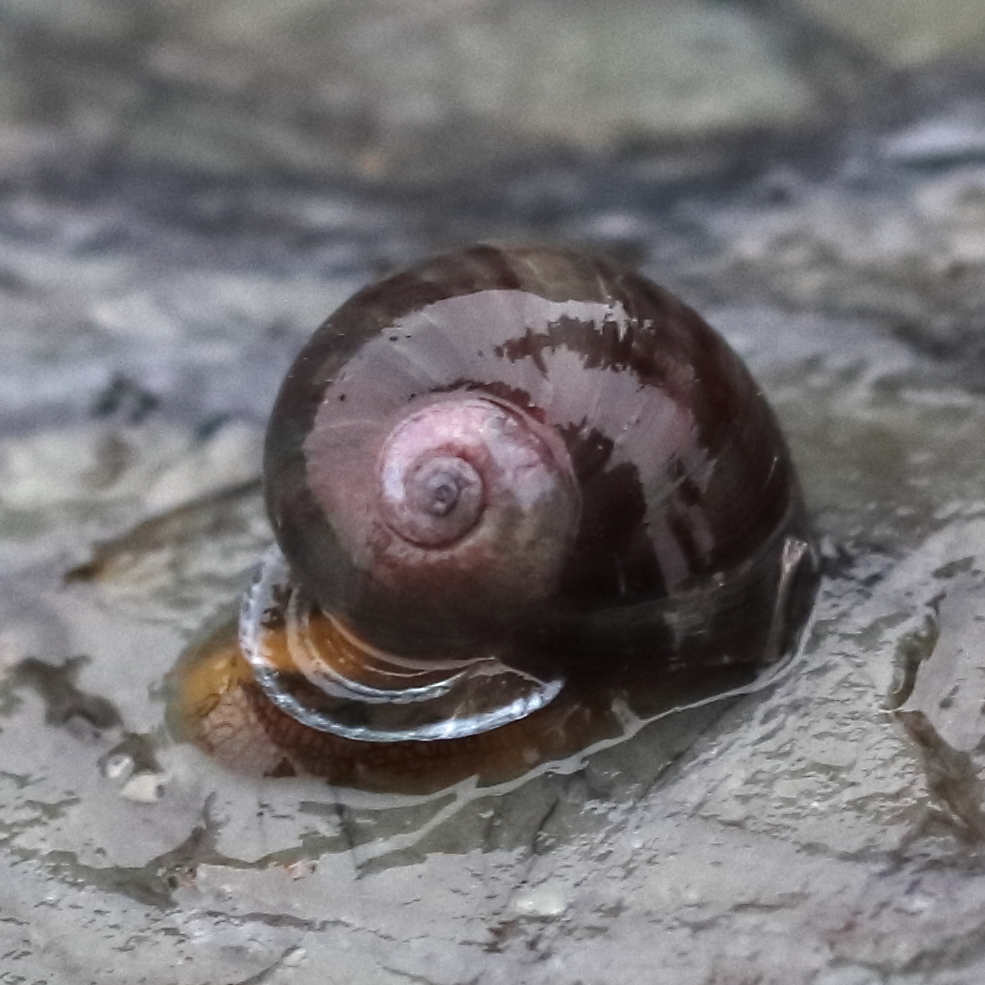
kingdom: Animalia
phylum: Mollusca
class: Gastropoda
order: Trochida
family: Margaritidae
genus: Margarites
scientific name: Margarites helicinus
